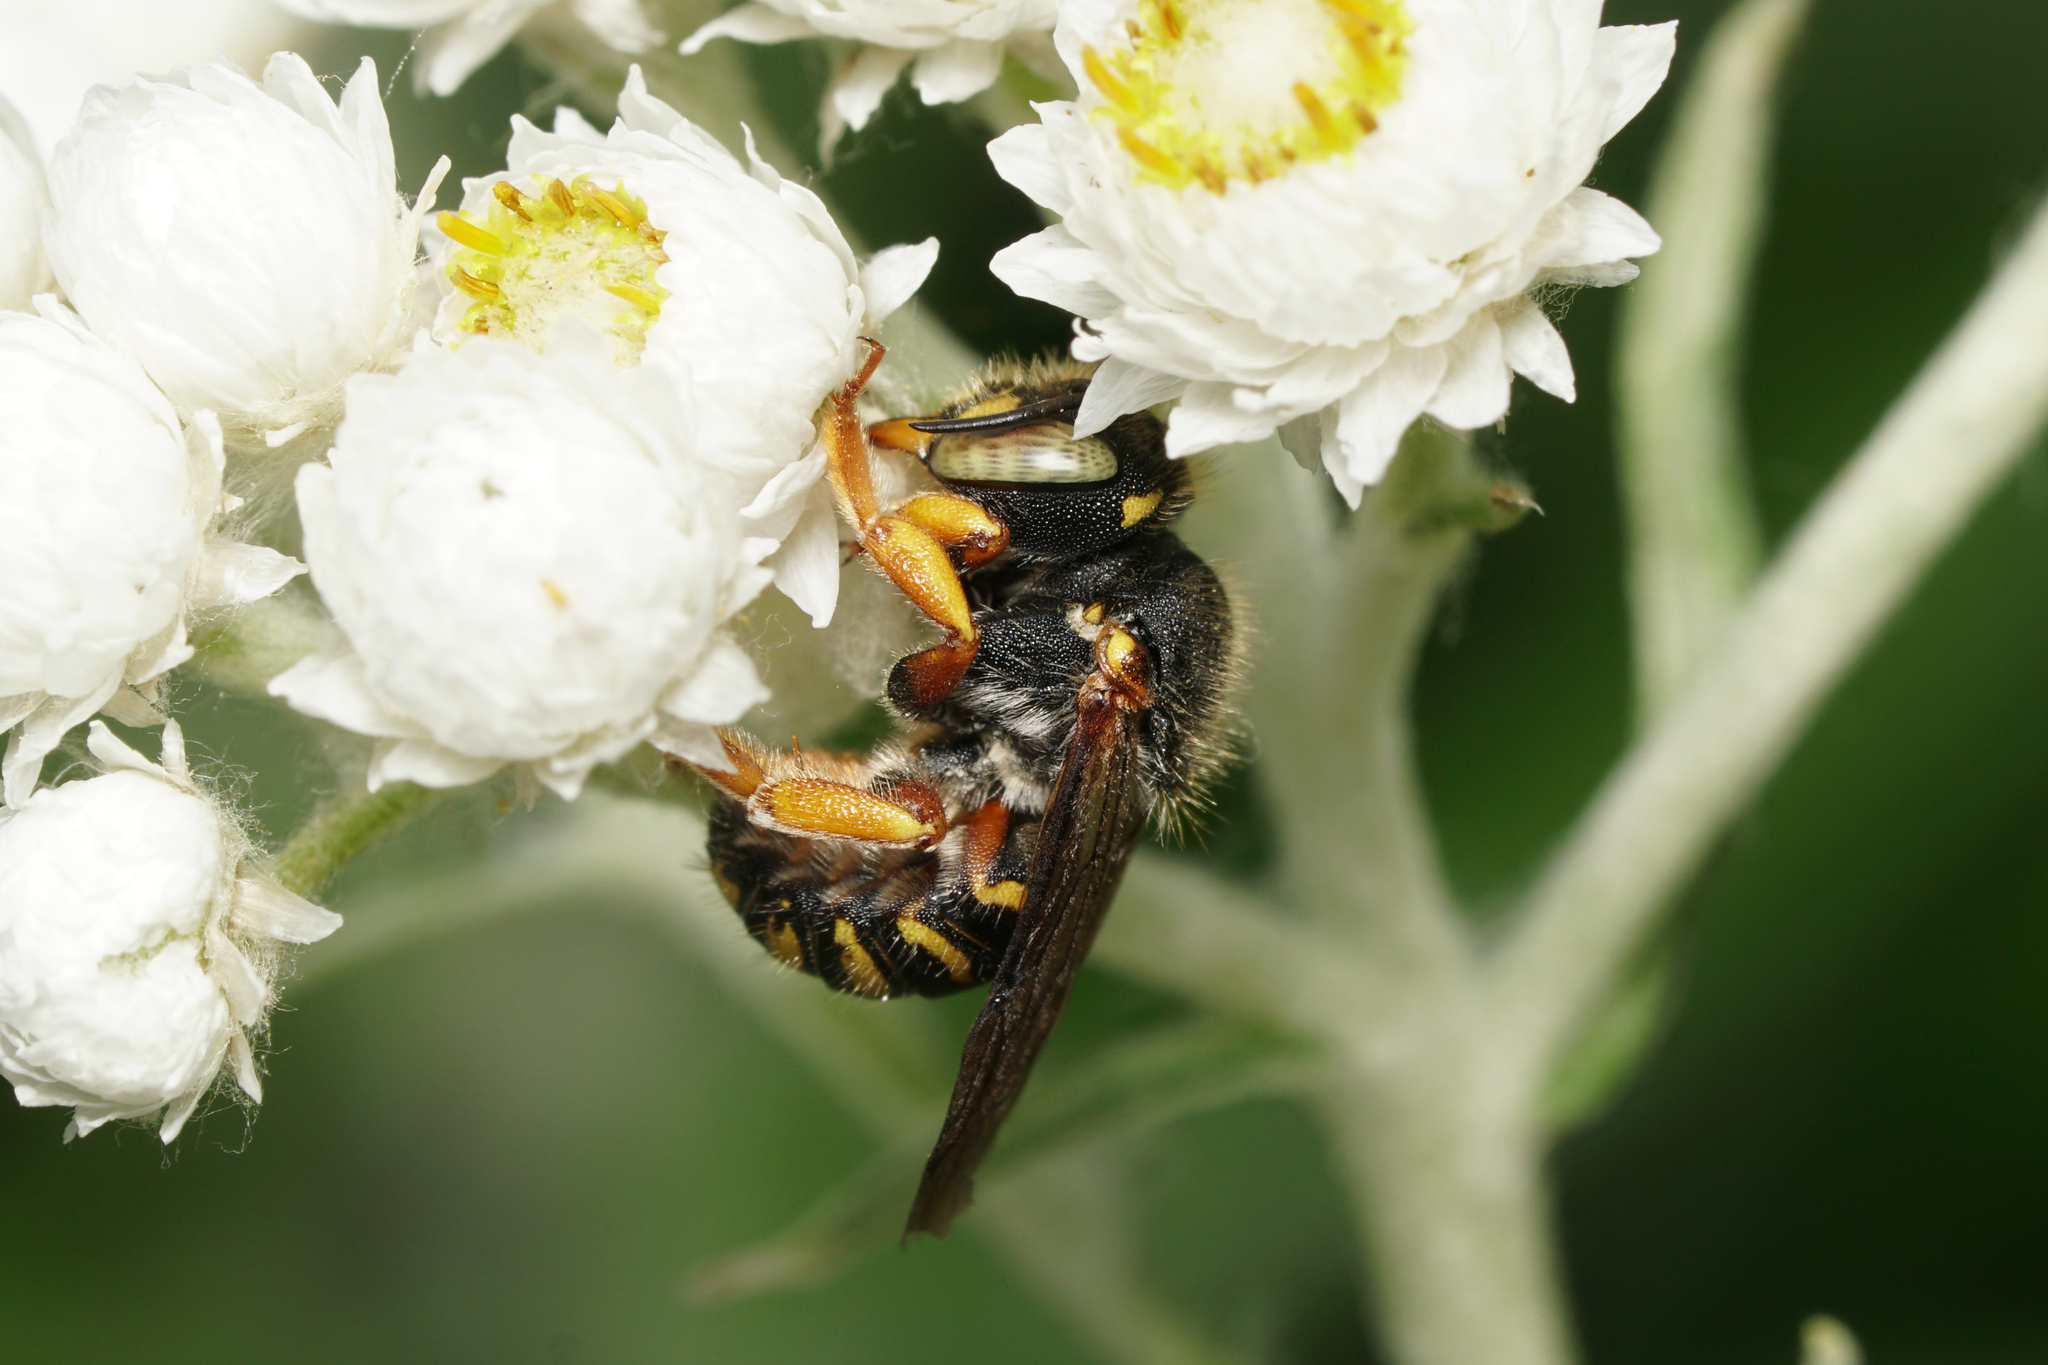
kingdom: Animalia
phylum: Arthropoda
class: Insecta
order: Hymenoptera
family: Megachilidae
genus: Anthidium
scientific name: Anthidium oblongatum
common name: Oblong wool carder bee
